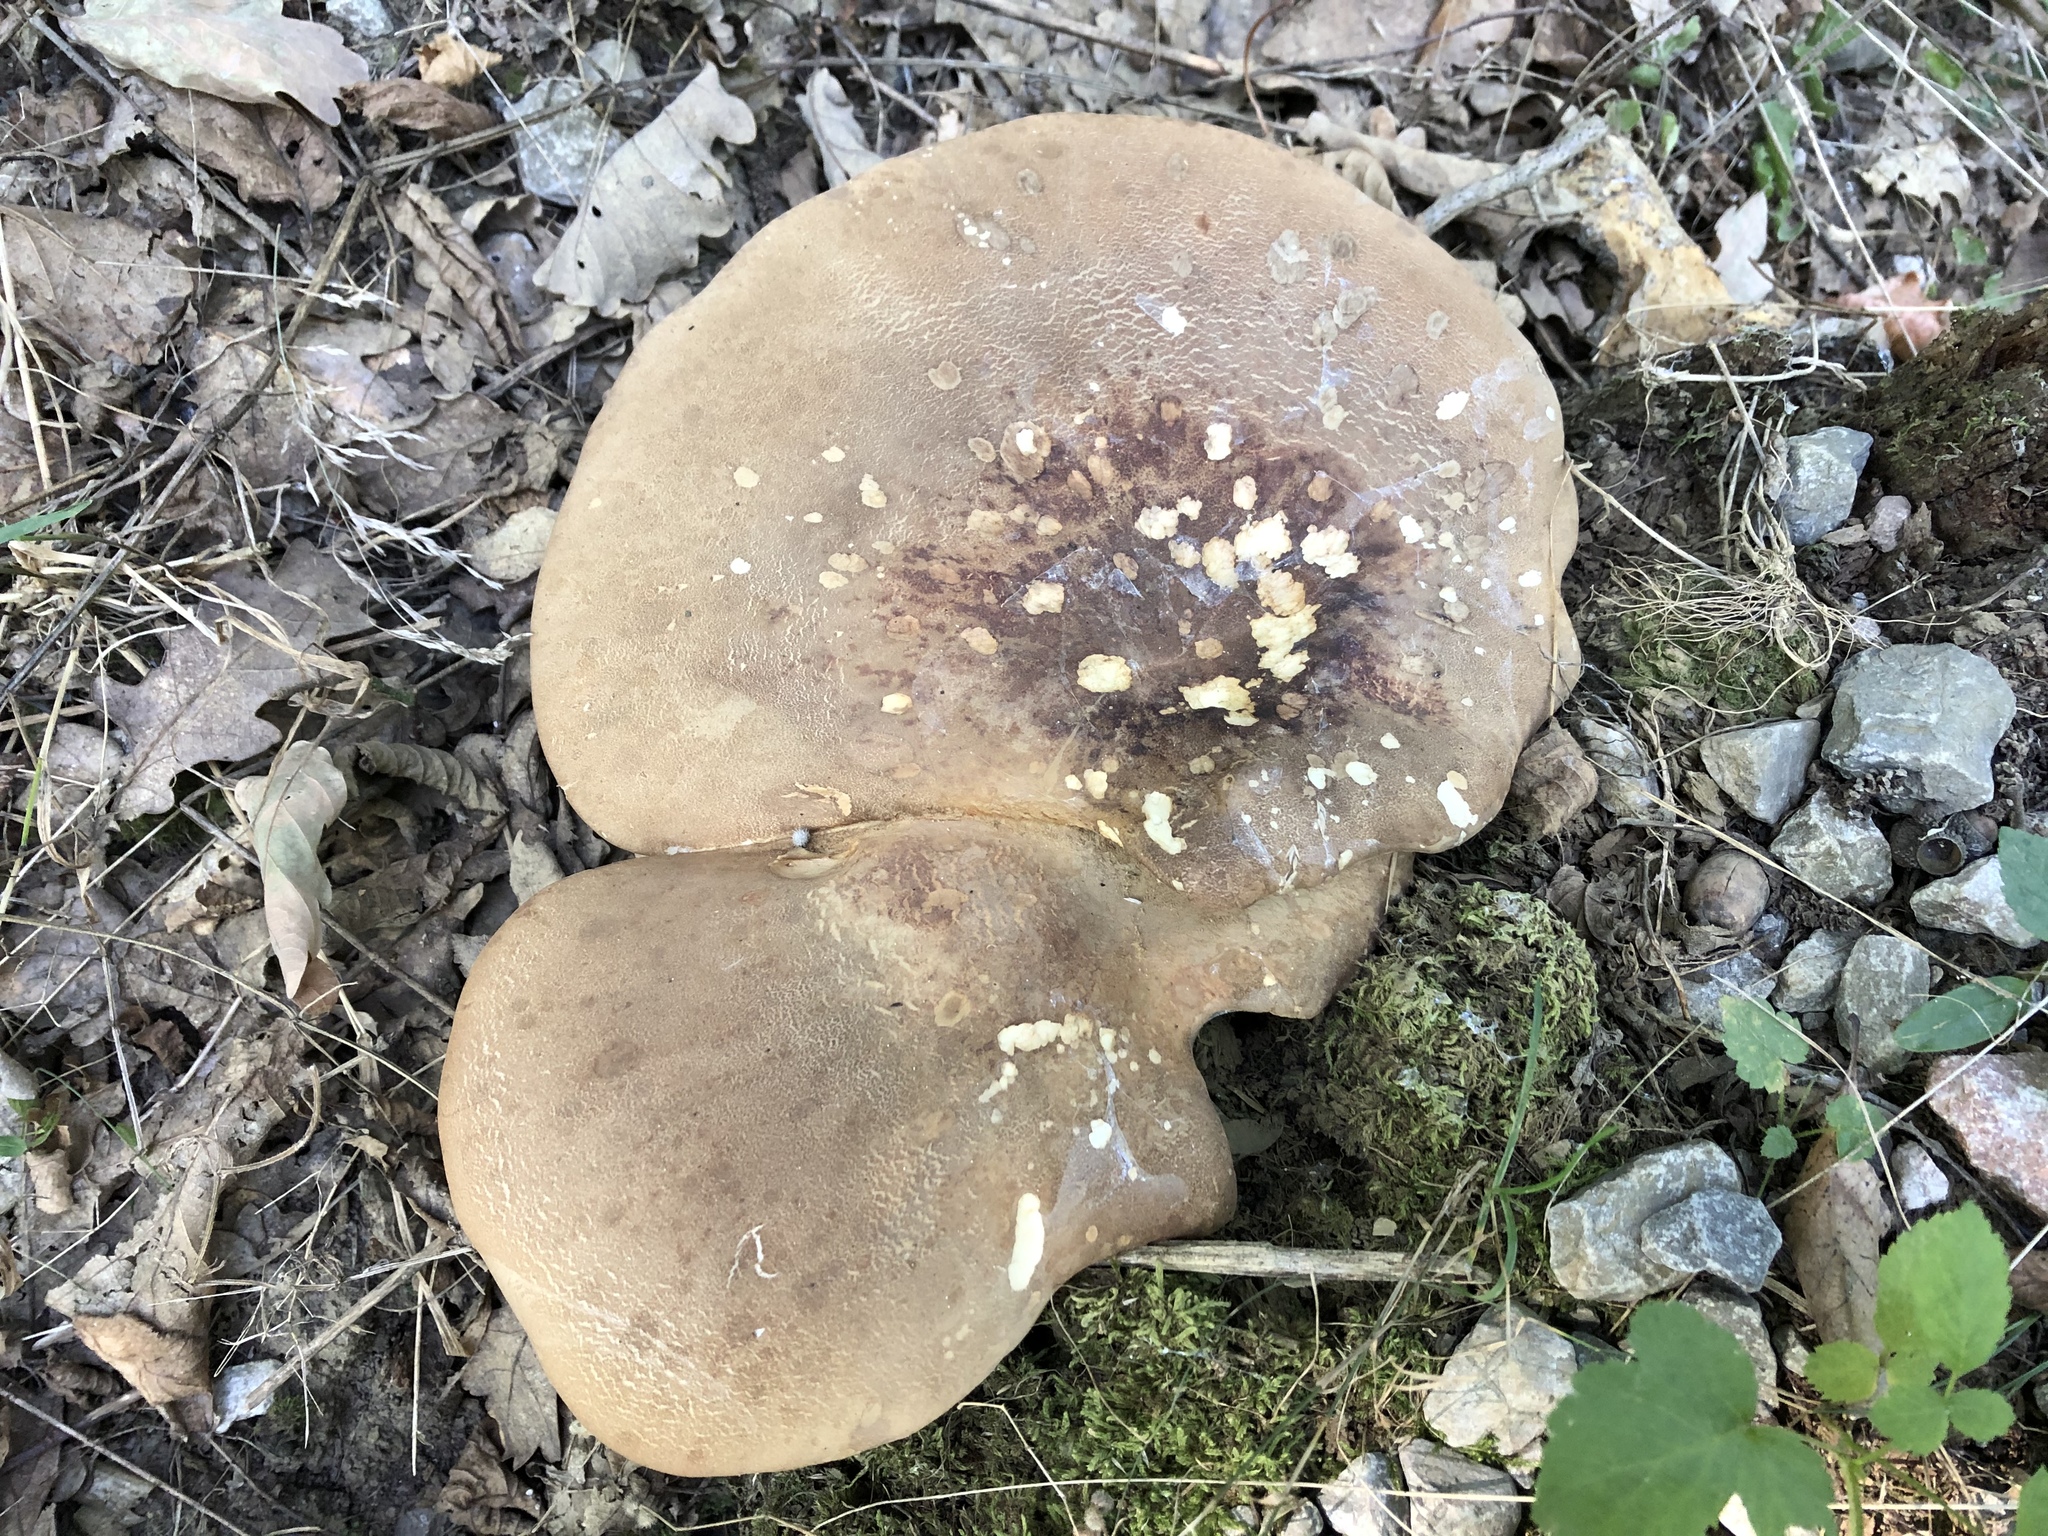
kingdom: Fungi
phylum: Basidiomycota
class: Agaricomycetes
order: Boletales
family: Tapinellaceae
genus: Tapinella
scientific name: Tapinella atrotomentosa
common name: Velvet rollrim
